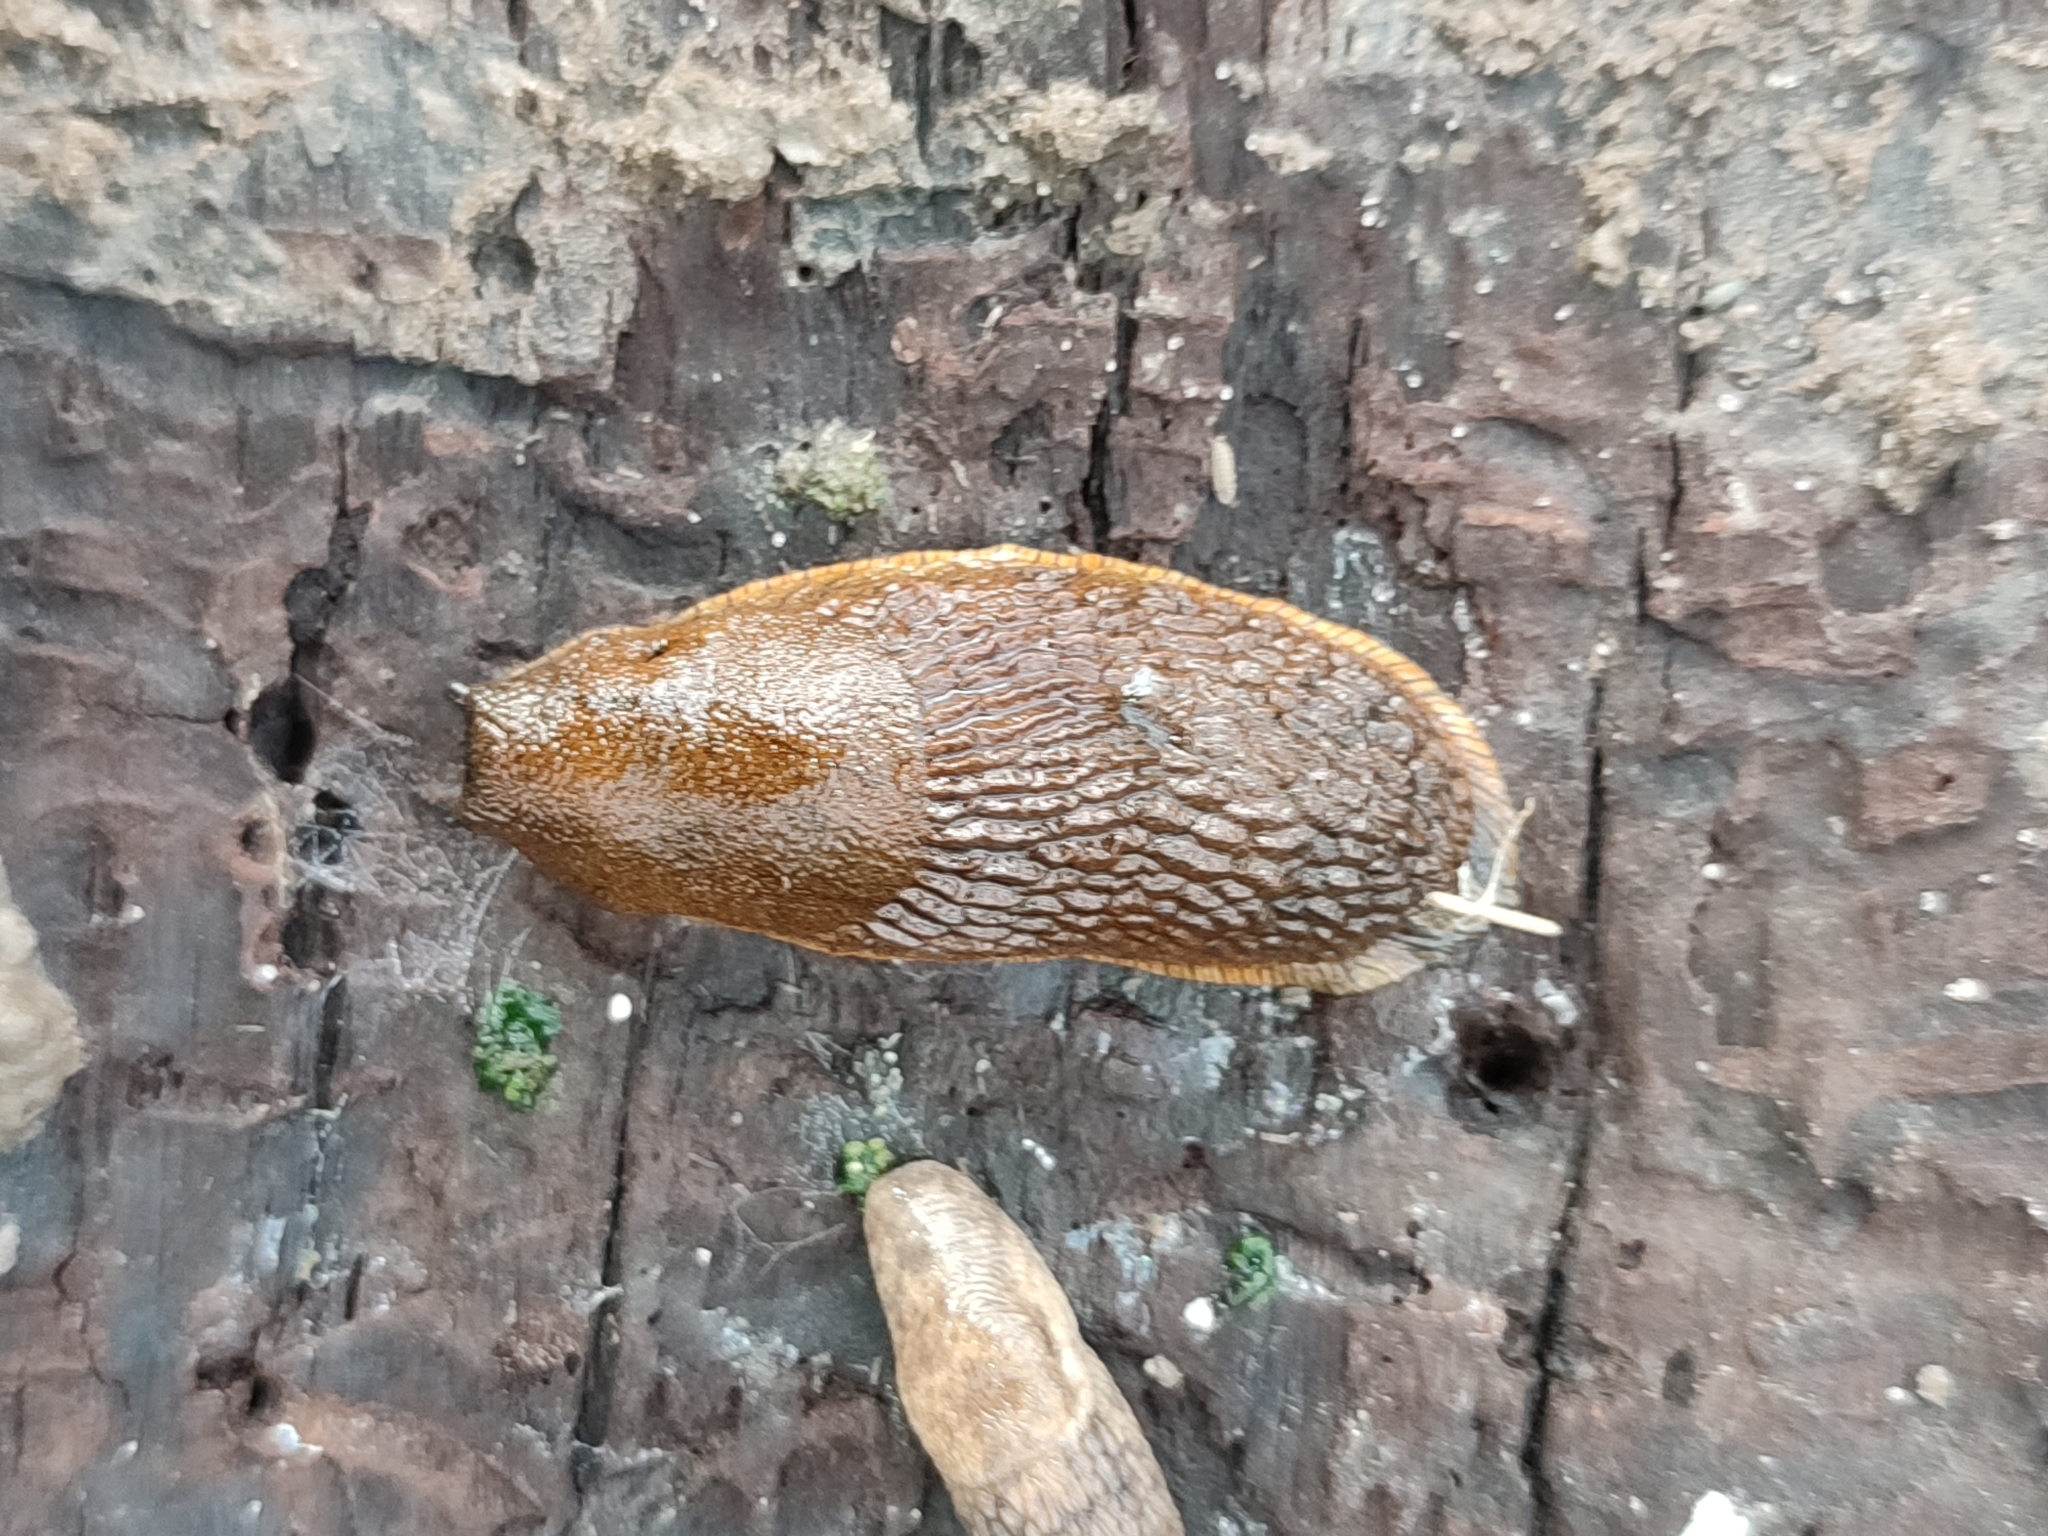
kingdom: Animalia
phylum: Mollusca
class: Gastropoda
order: Stylommatophora
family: Arionidae
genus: Arion
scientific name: Arion vulgaris
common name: Lusitanian slug
